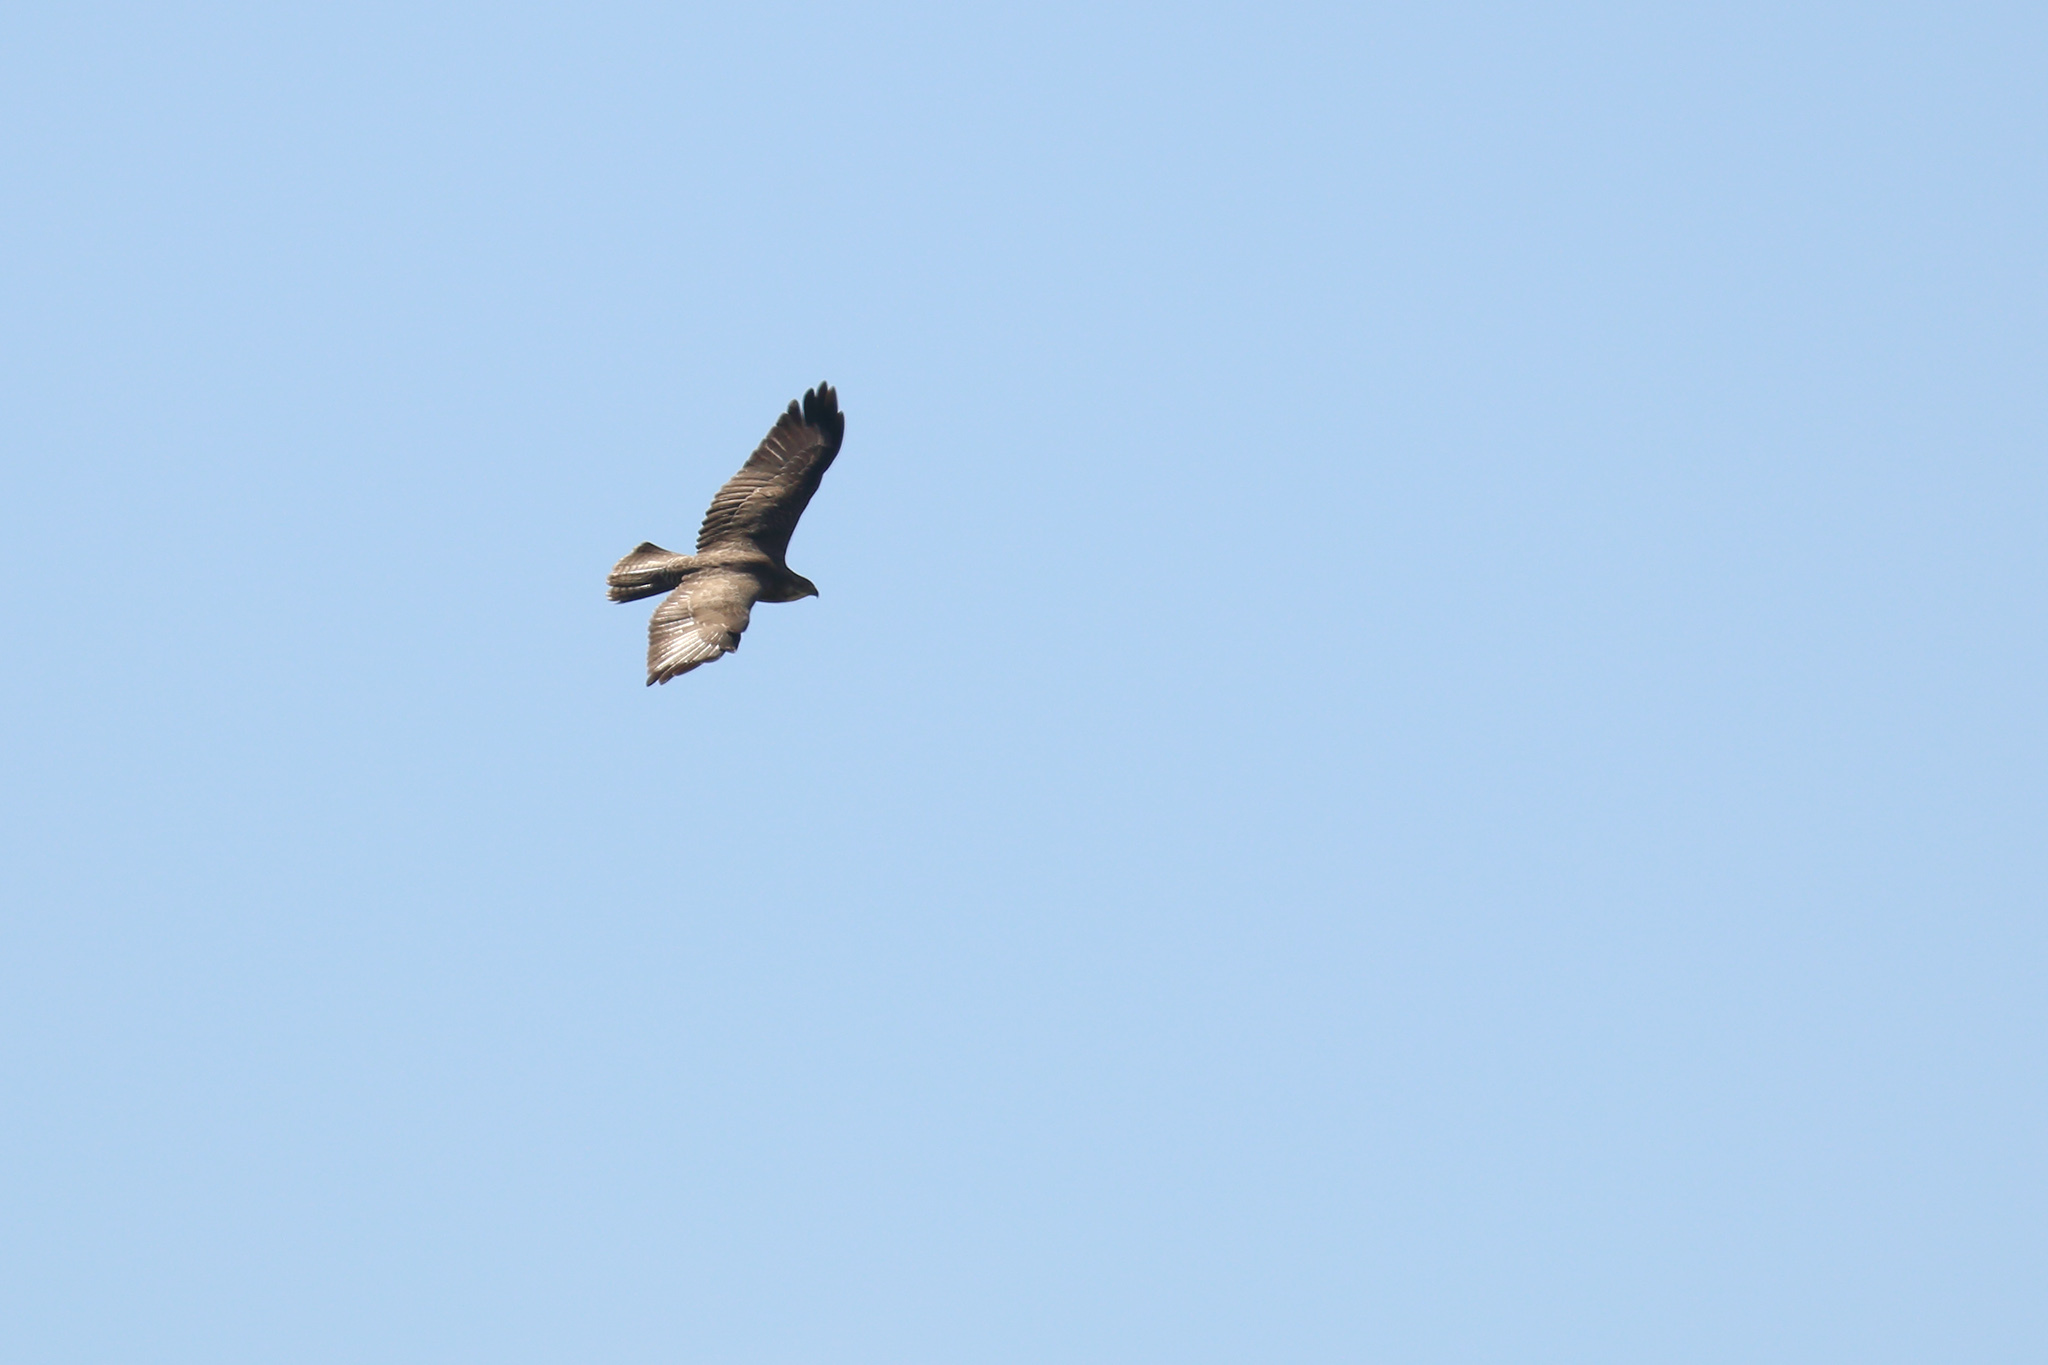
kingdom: Animalia
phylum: Chordata
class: Aves
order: Accipitriformes
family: Accipitridae
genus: Buteo
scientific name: Buteo buteo
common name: Common buzzard
